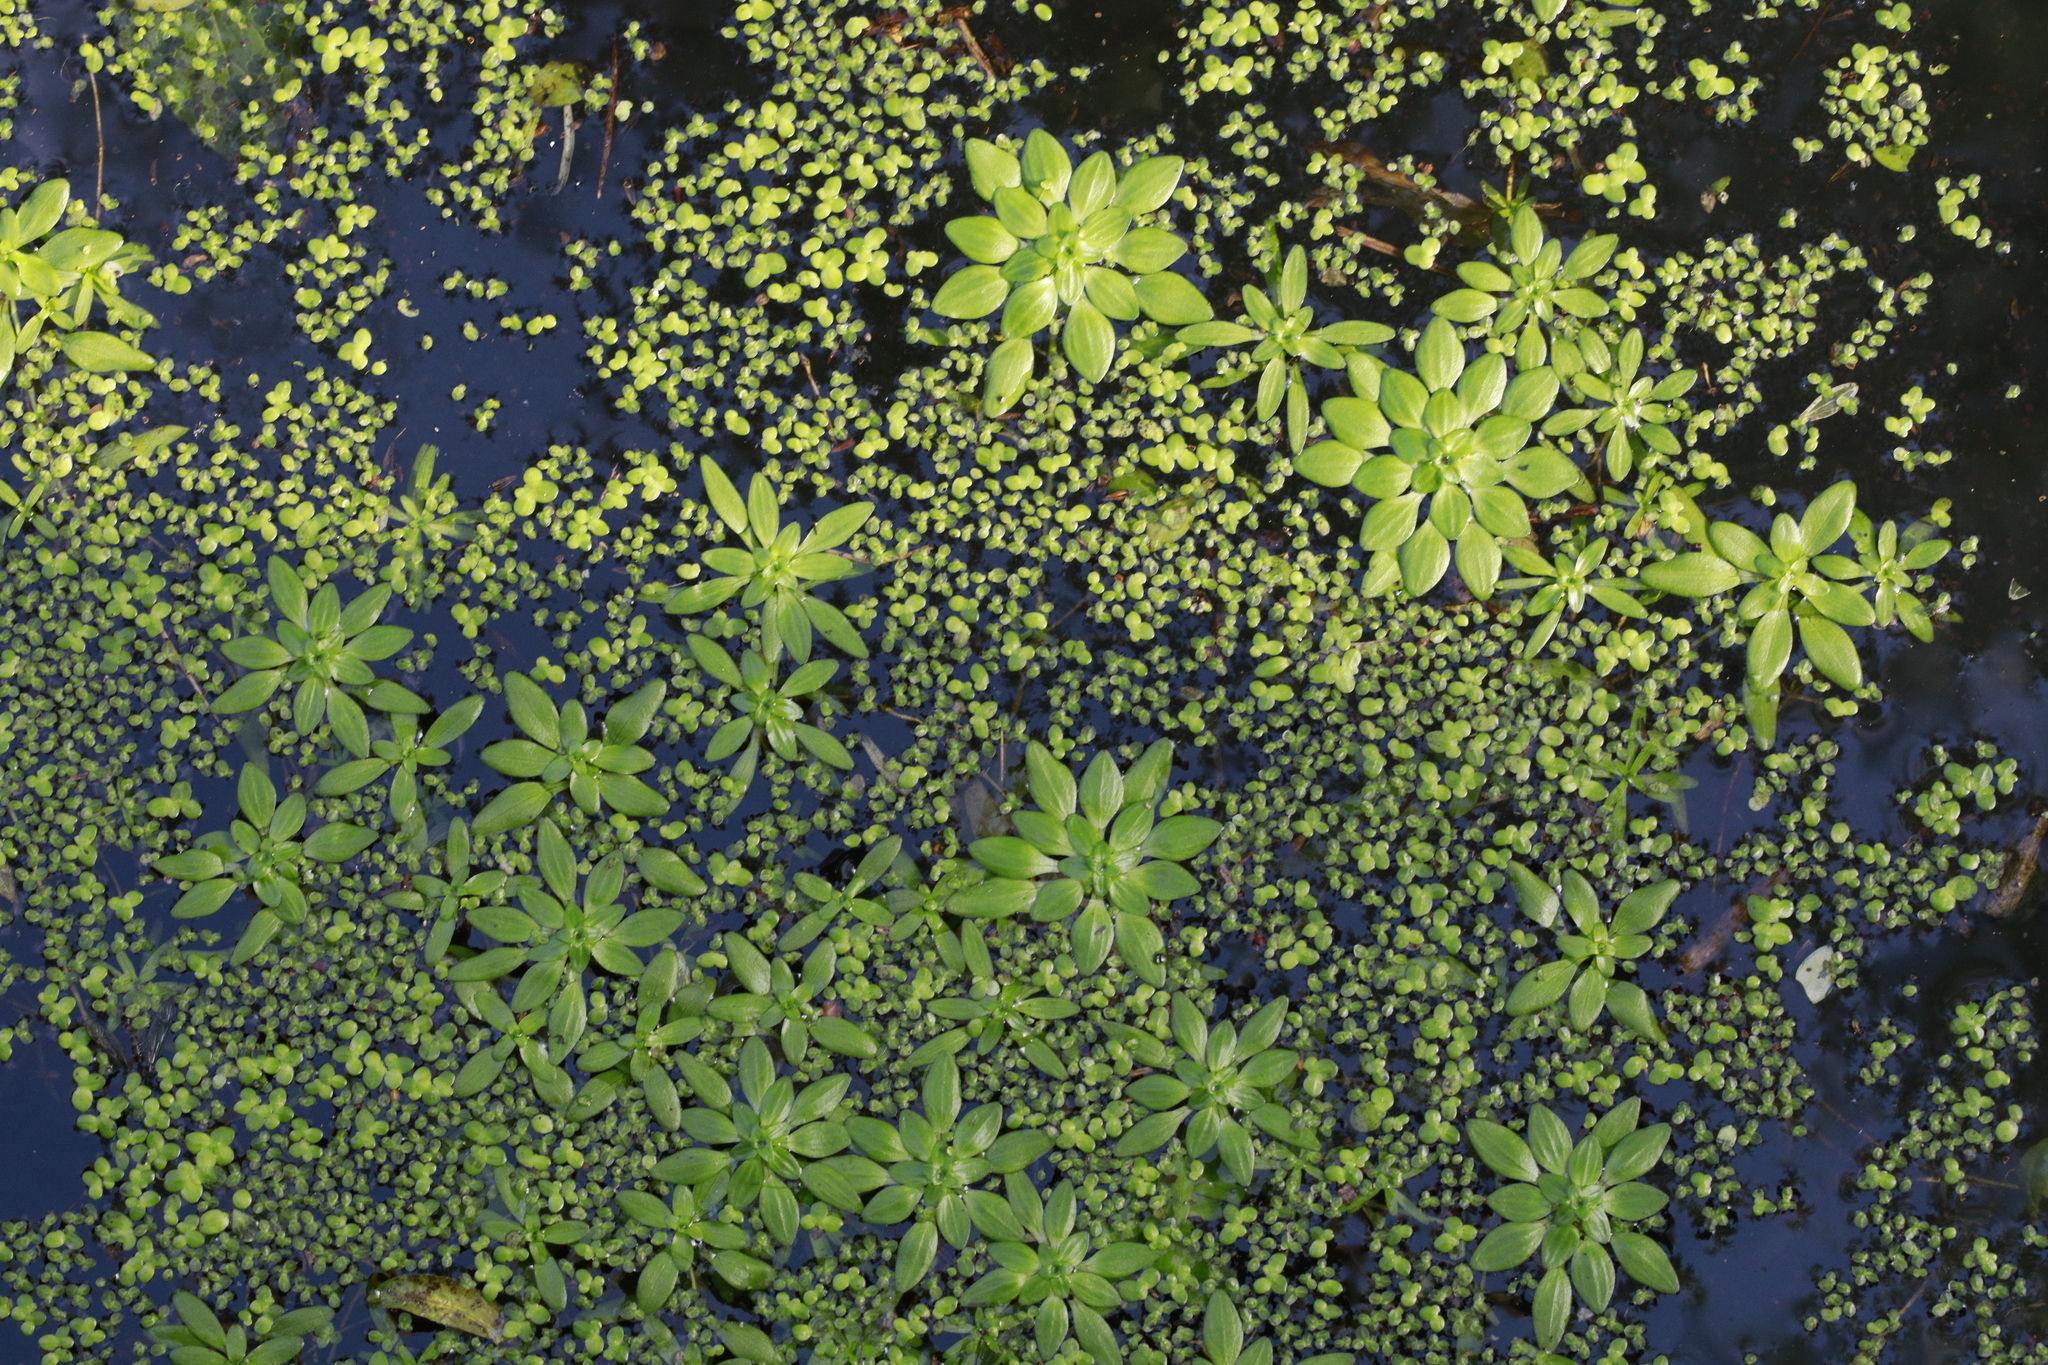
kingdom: Plantae
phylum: Tracheophyta
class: Magnoliopsida
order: Lamiales
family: Plantaginaceae
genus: Callitriche
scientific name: Callitriche stagnalis
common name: Common water-starwort
